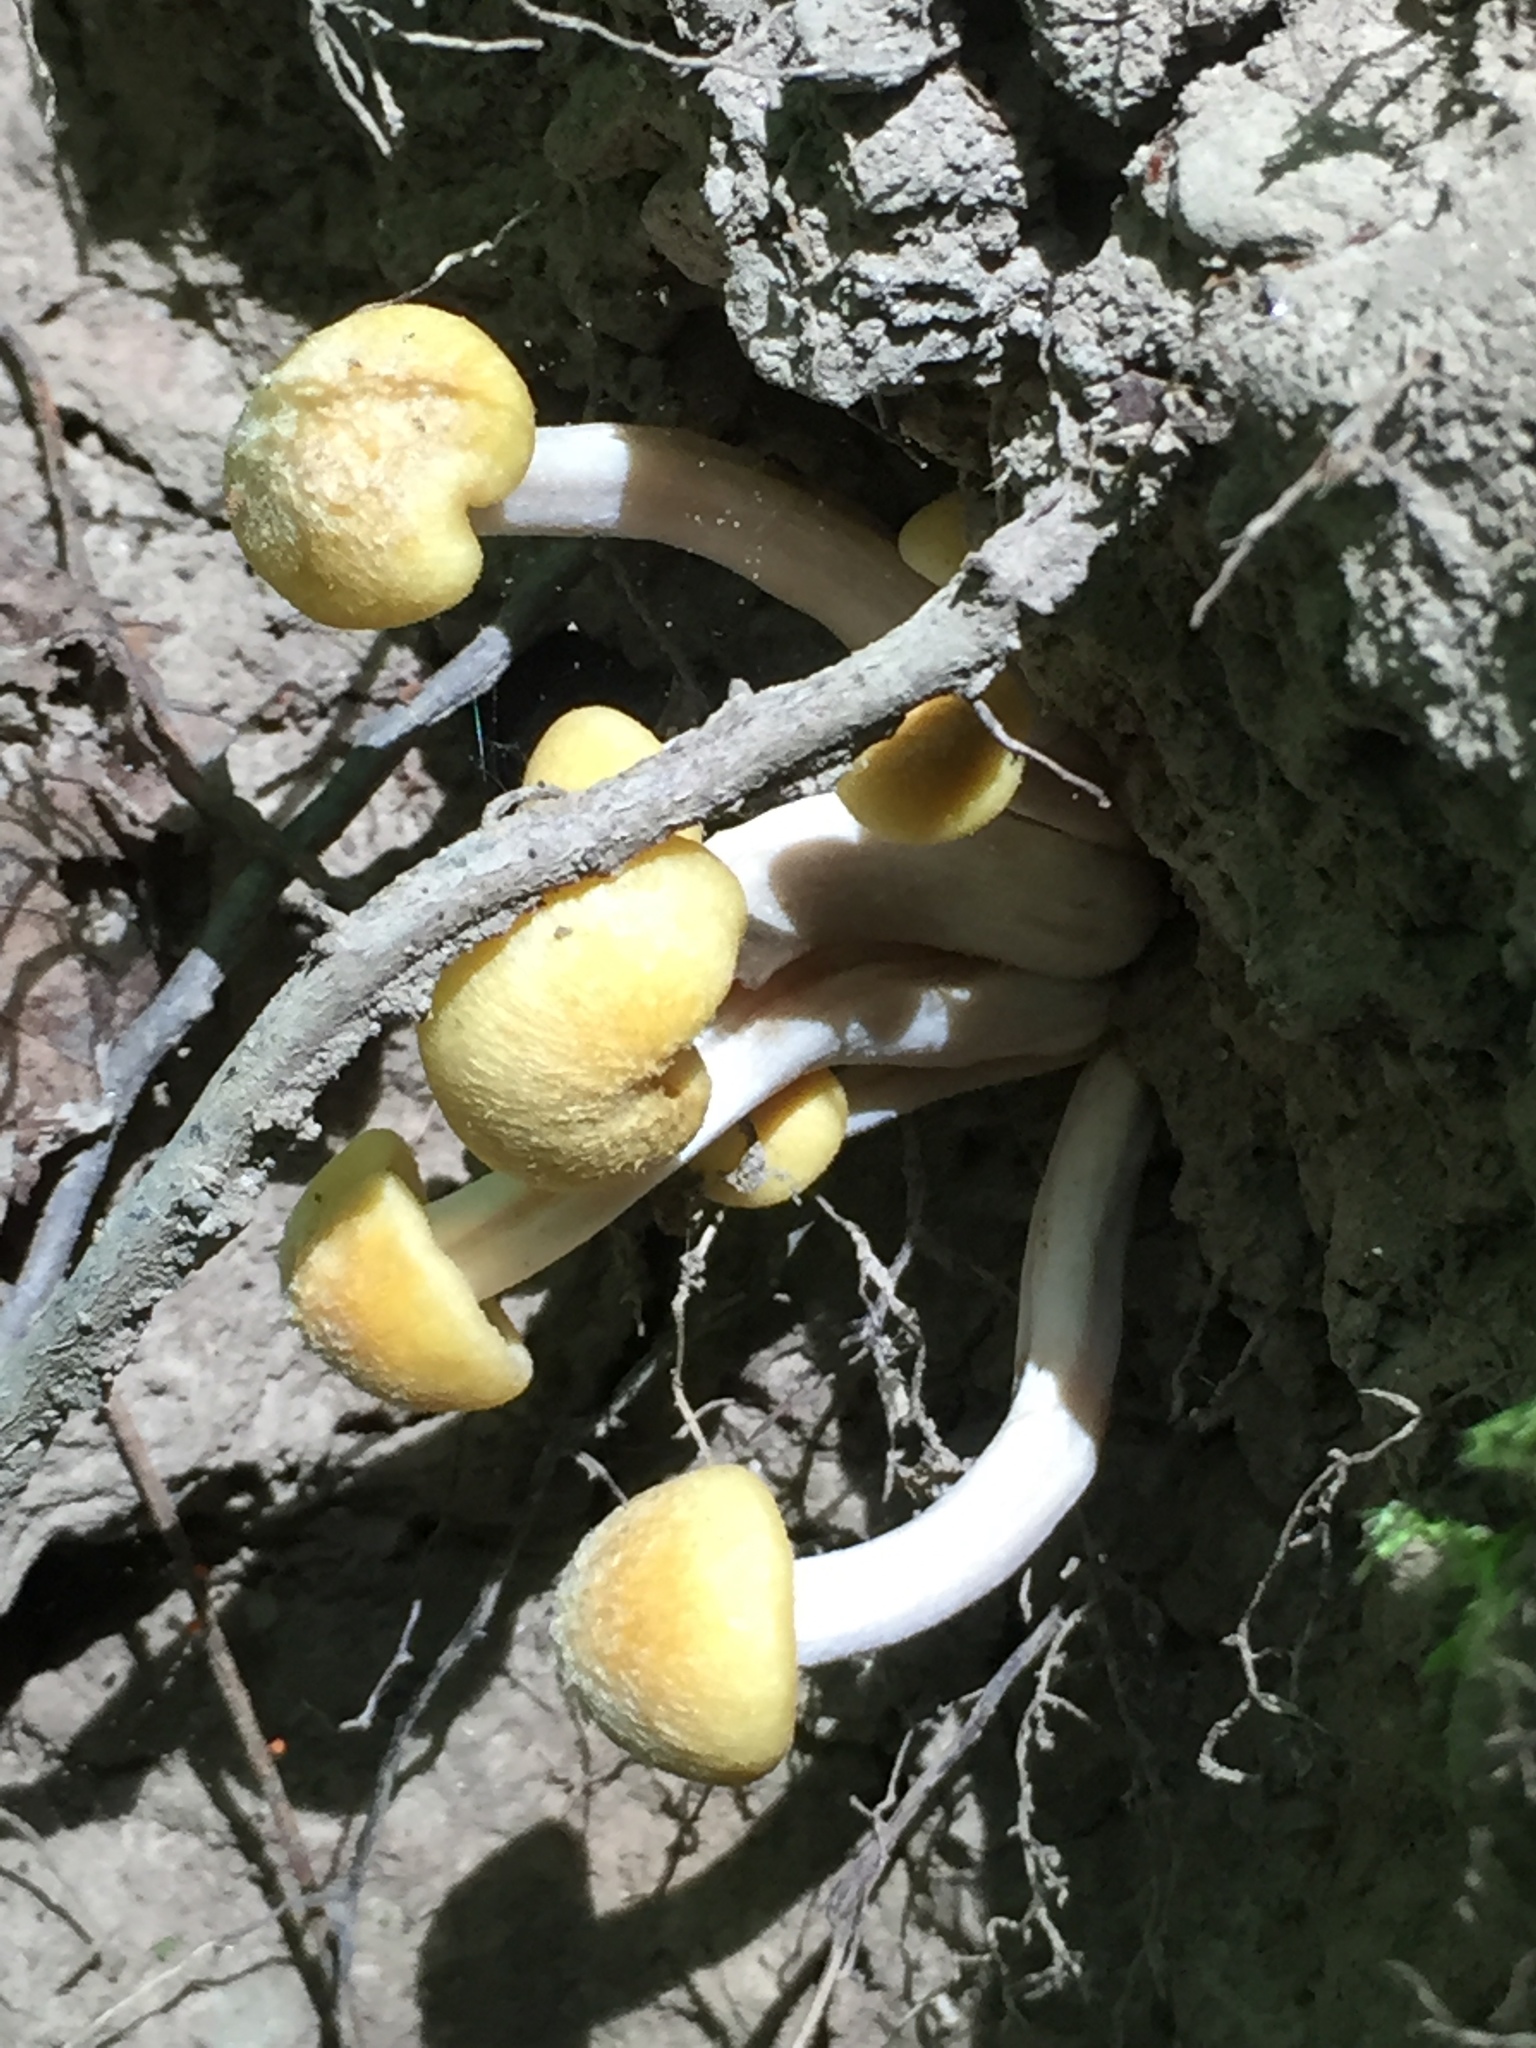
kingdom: Fungi
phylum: Basidiomycota
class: Agaricomycetes
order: Agaricales
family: Physalacriaceae
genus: Desarmillaria
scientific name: Desarmillaria caespitosa
